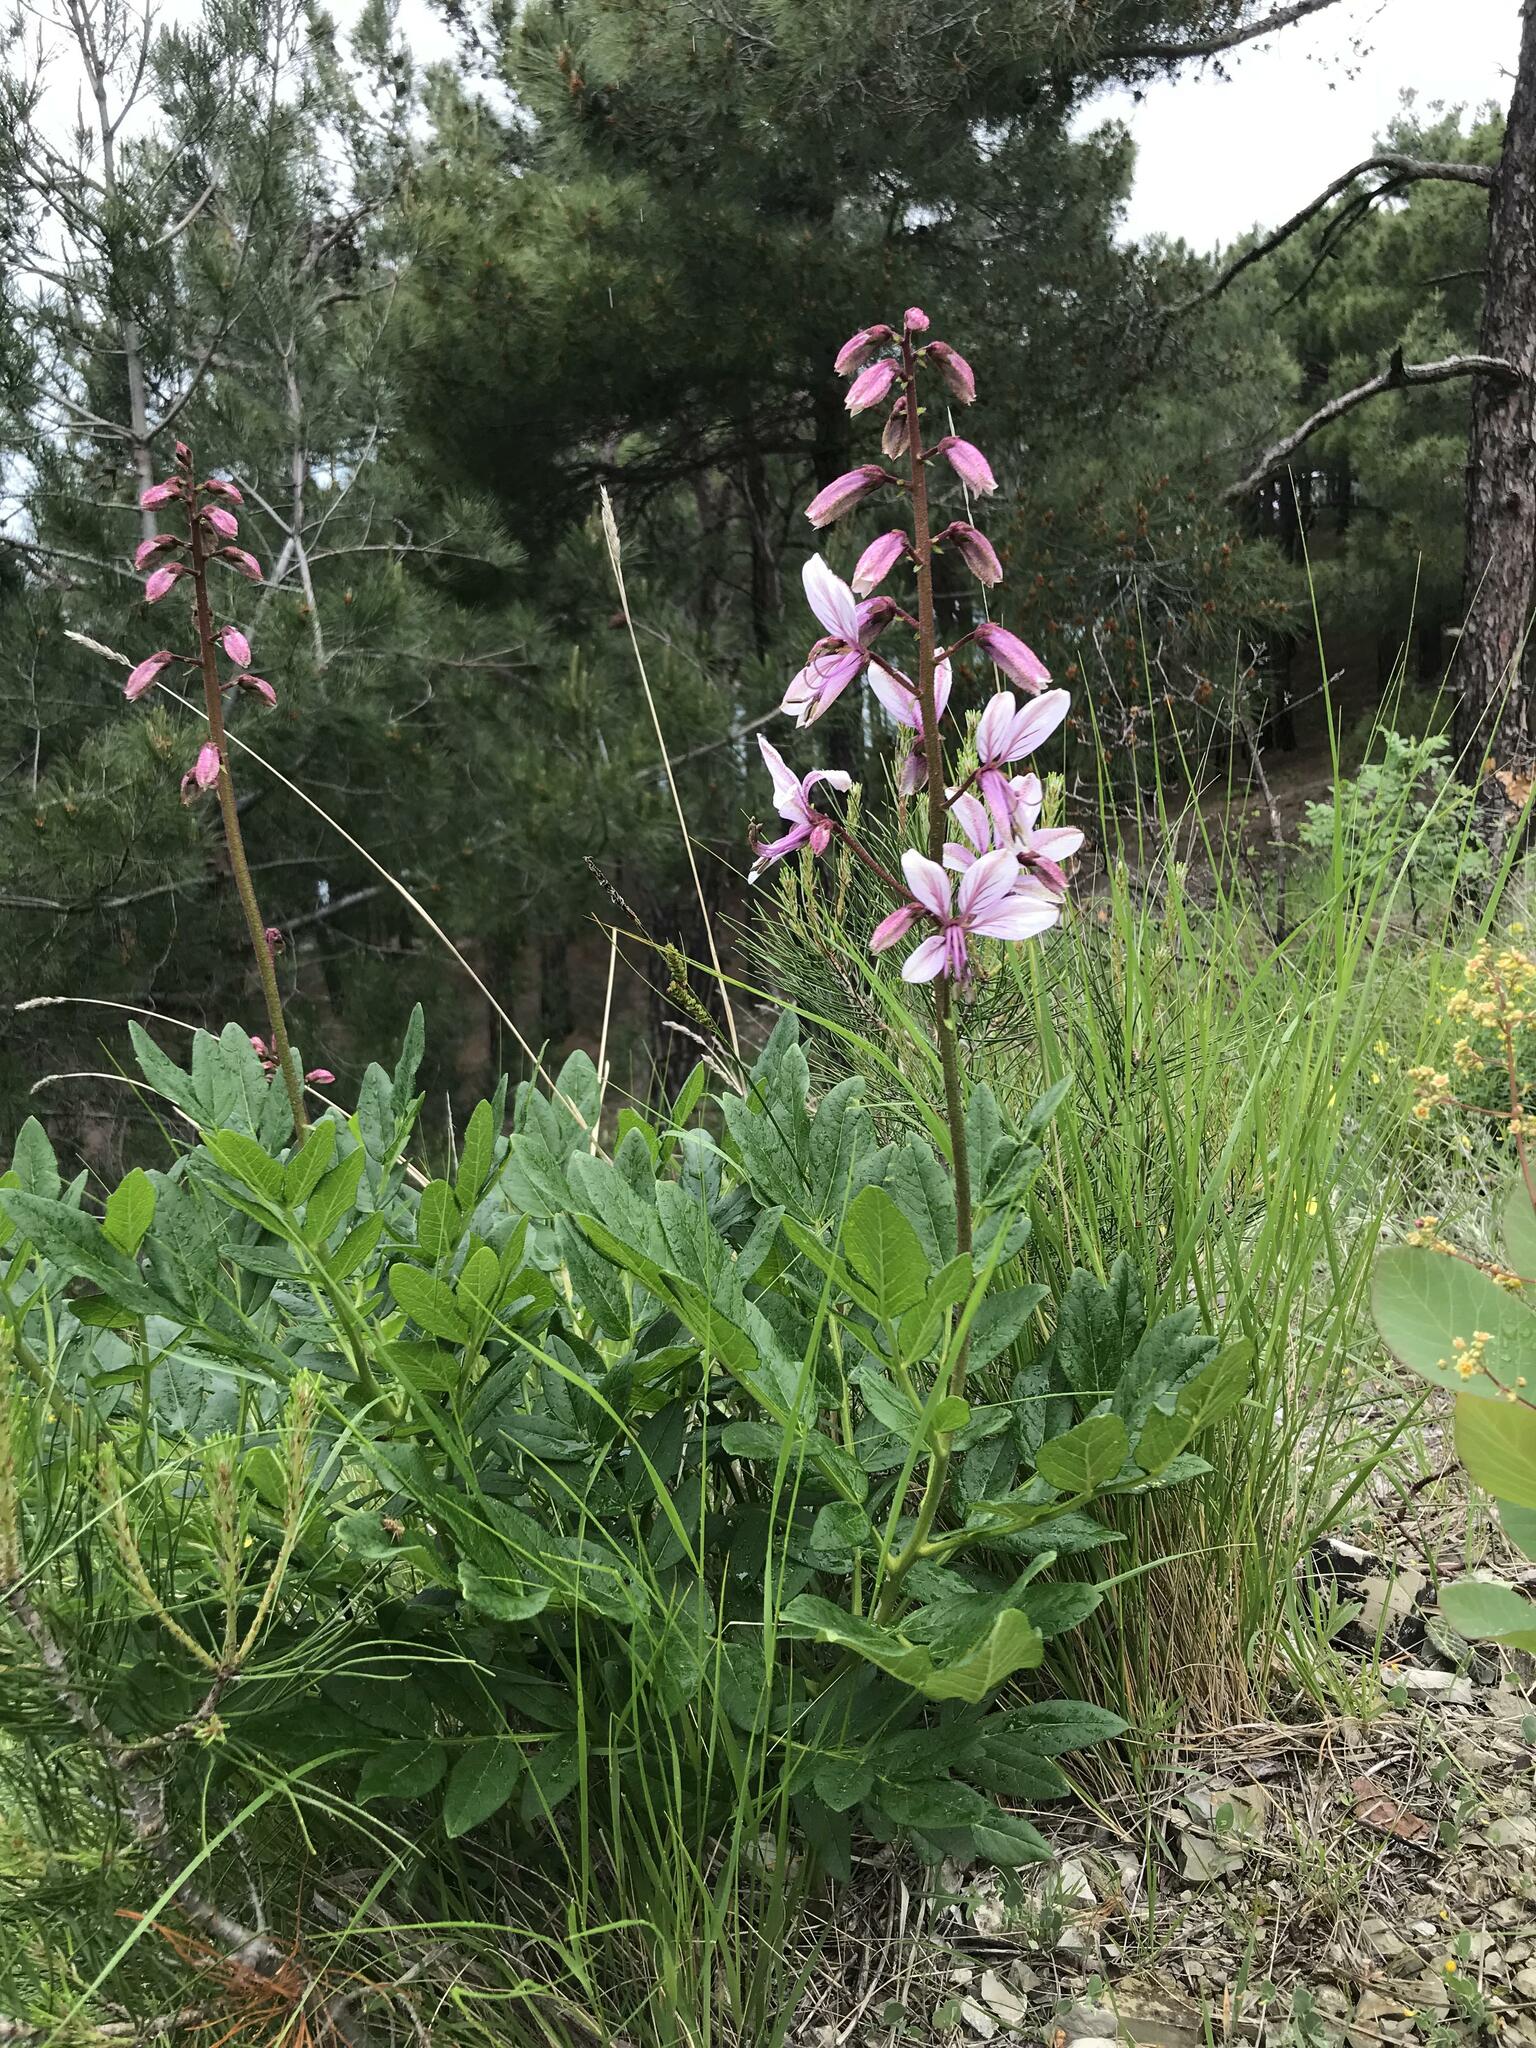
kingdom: Plantae
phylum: Tracheophyta
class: Magnoliopsida
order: Sapindales
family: Rutaceae
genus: Dictamnus
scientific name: Dictamnus albus
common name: Gasplant
